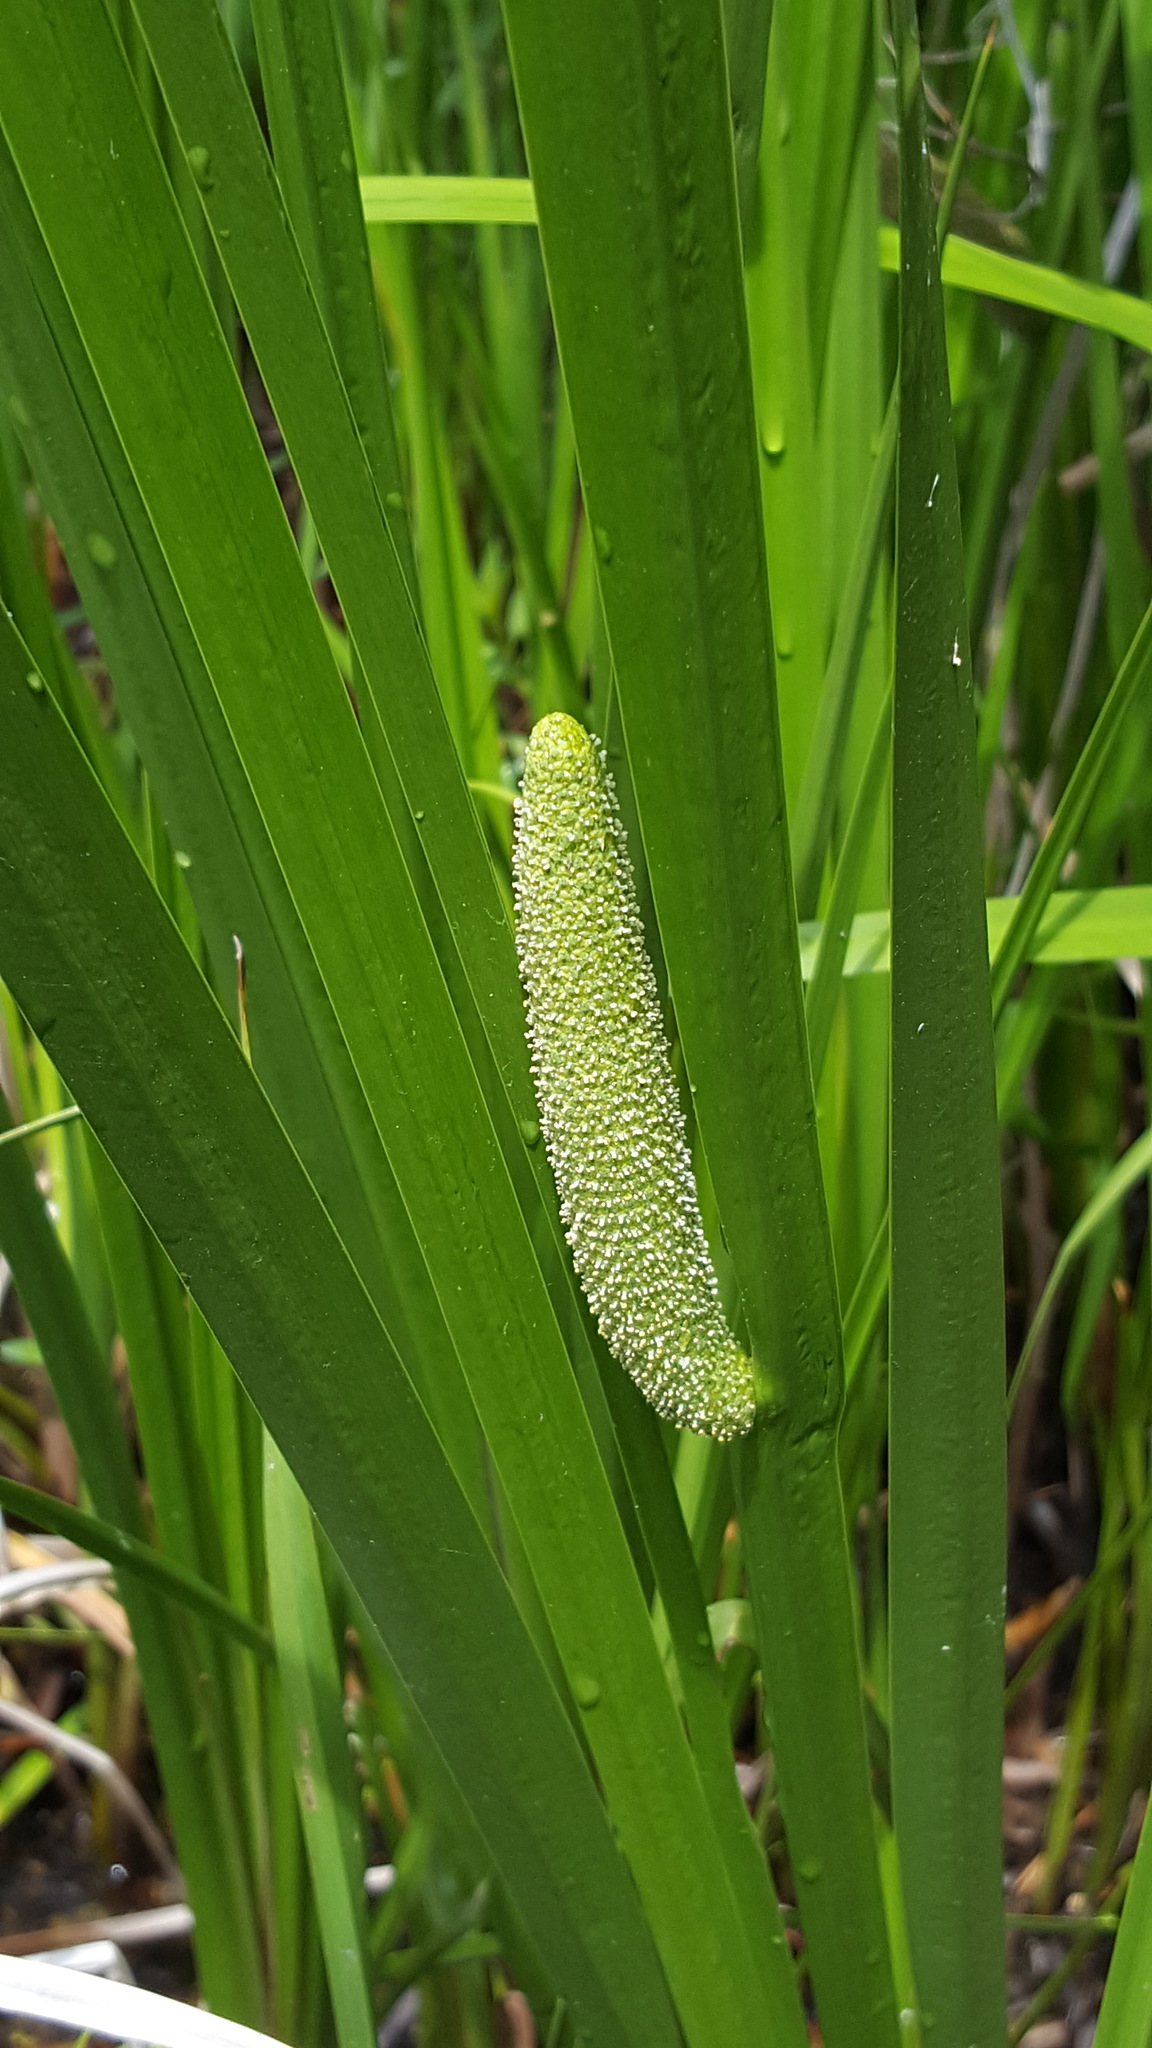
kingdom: Plantae
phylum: Tracheophyta
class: Liliopsida
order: Acorales
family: Acoraceae
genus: Acorus
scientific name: Acorus calamus
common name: Sweet-flag
